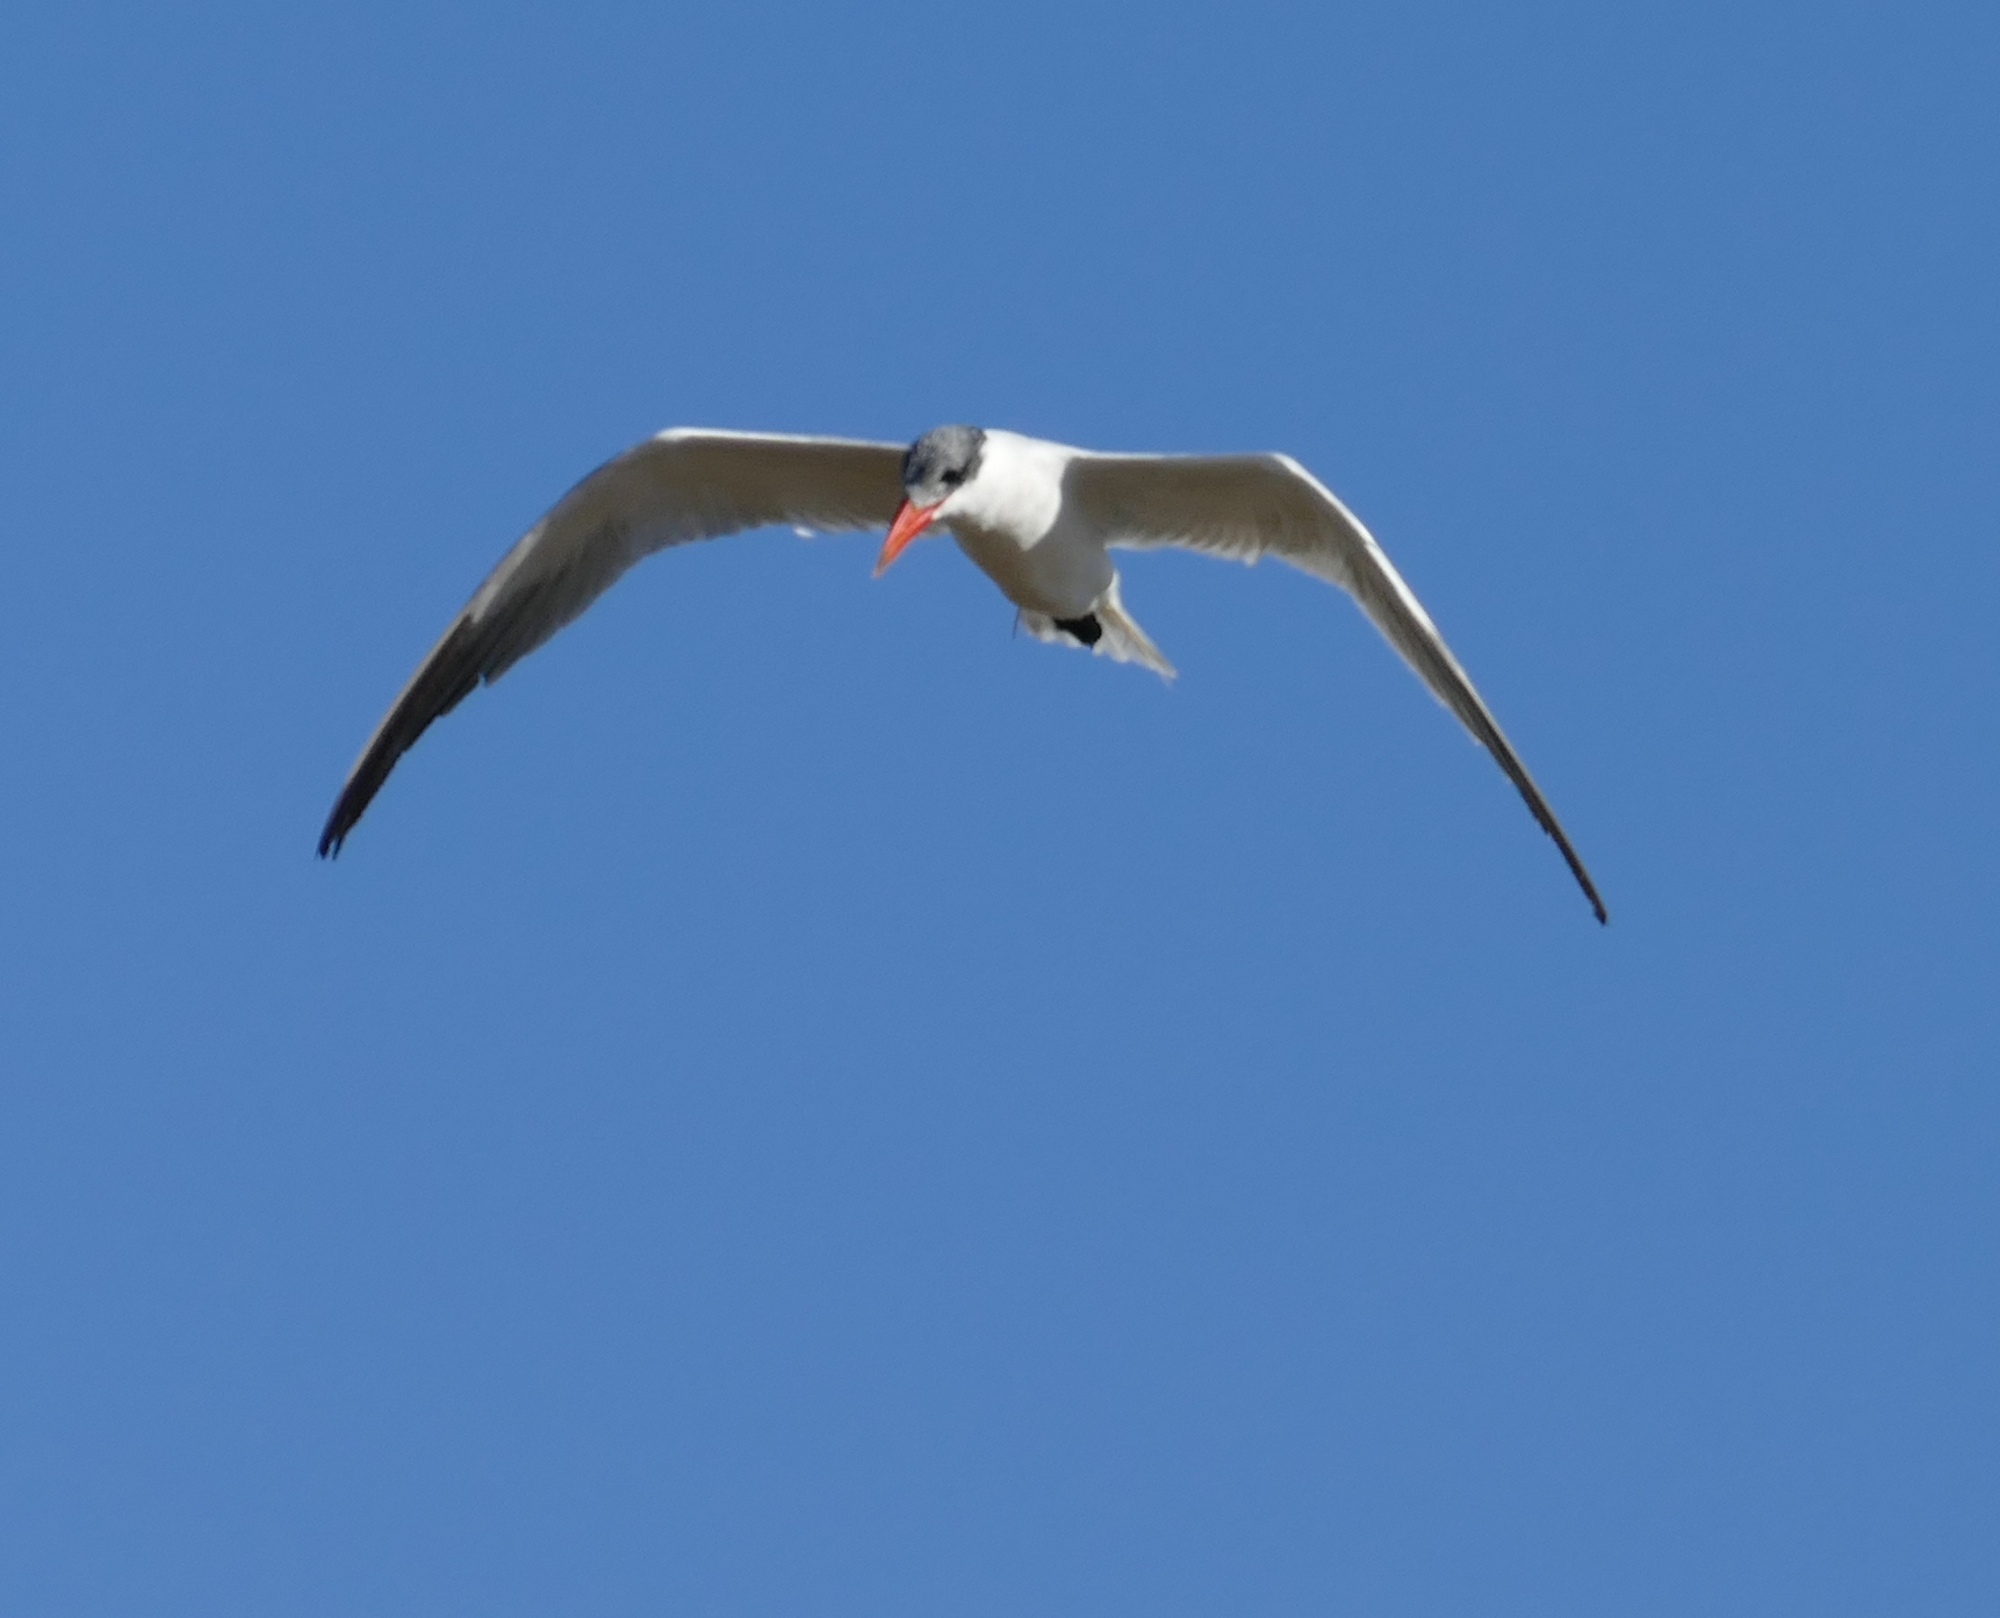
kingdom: Animalia
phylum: Chordata
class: Aves
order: Charadriiformes
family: Laridae
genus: Hydroprogne
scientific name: Hydroprogne caspia
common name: Caspian tern
